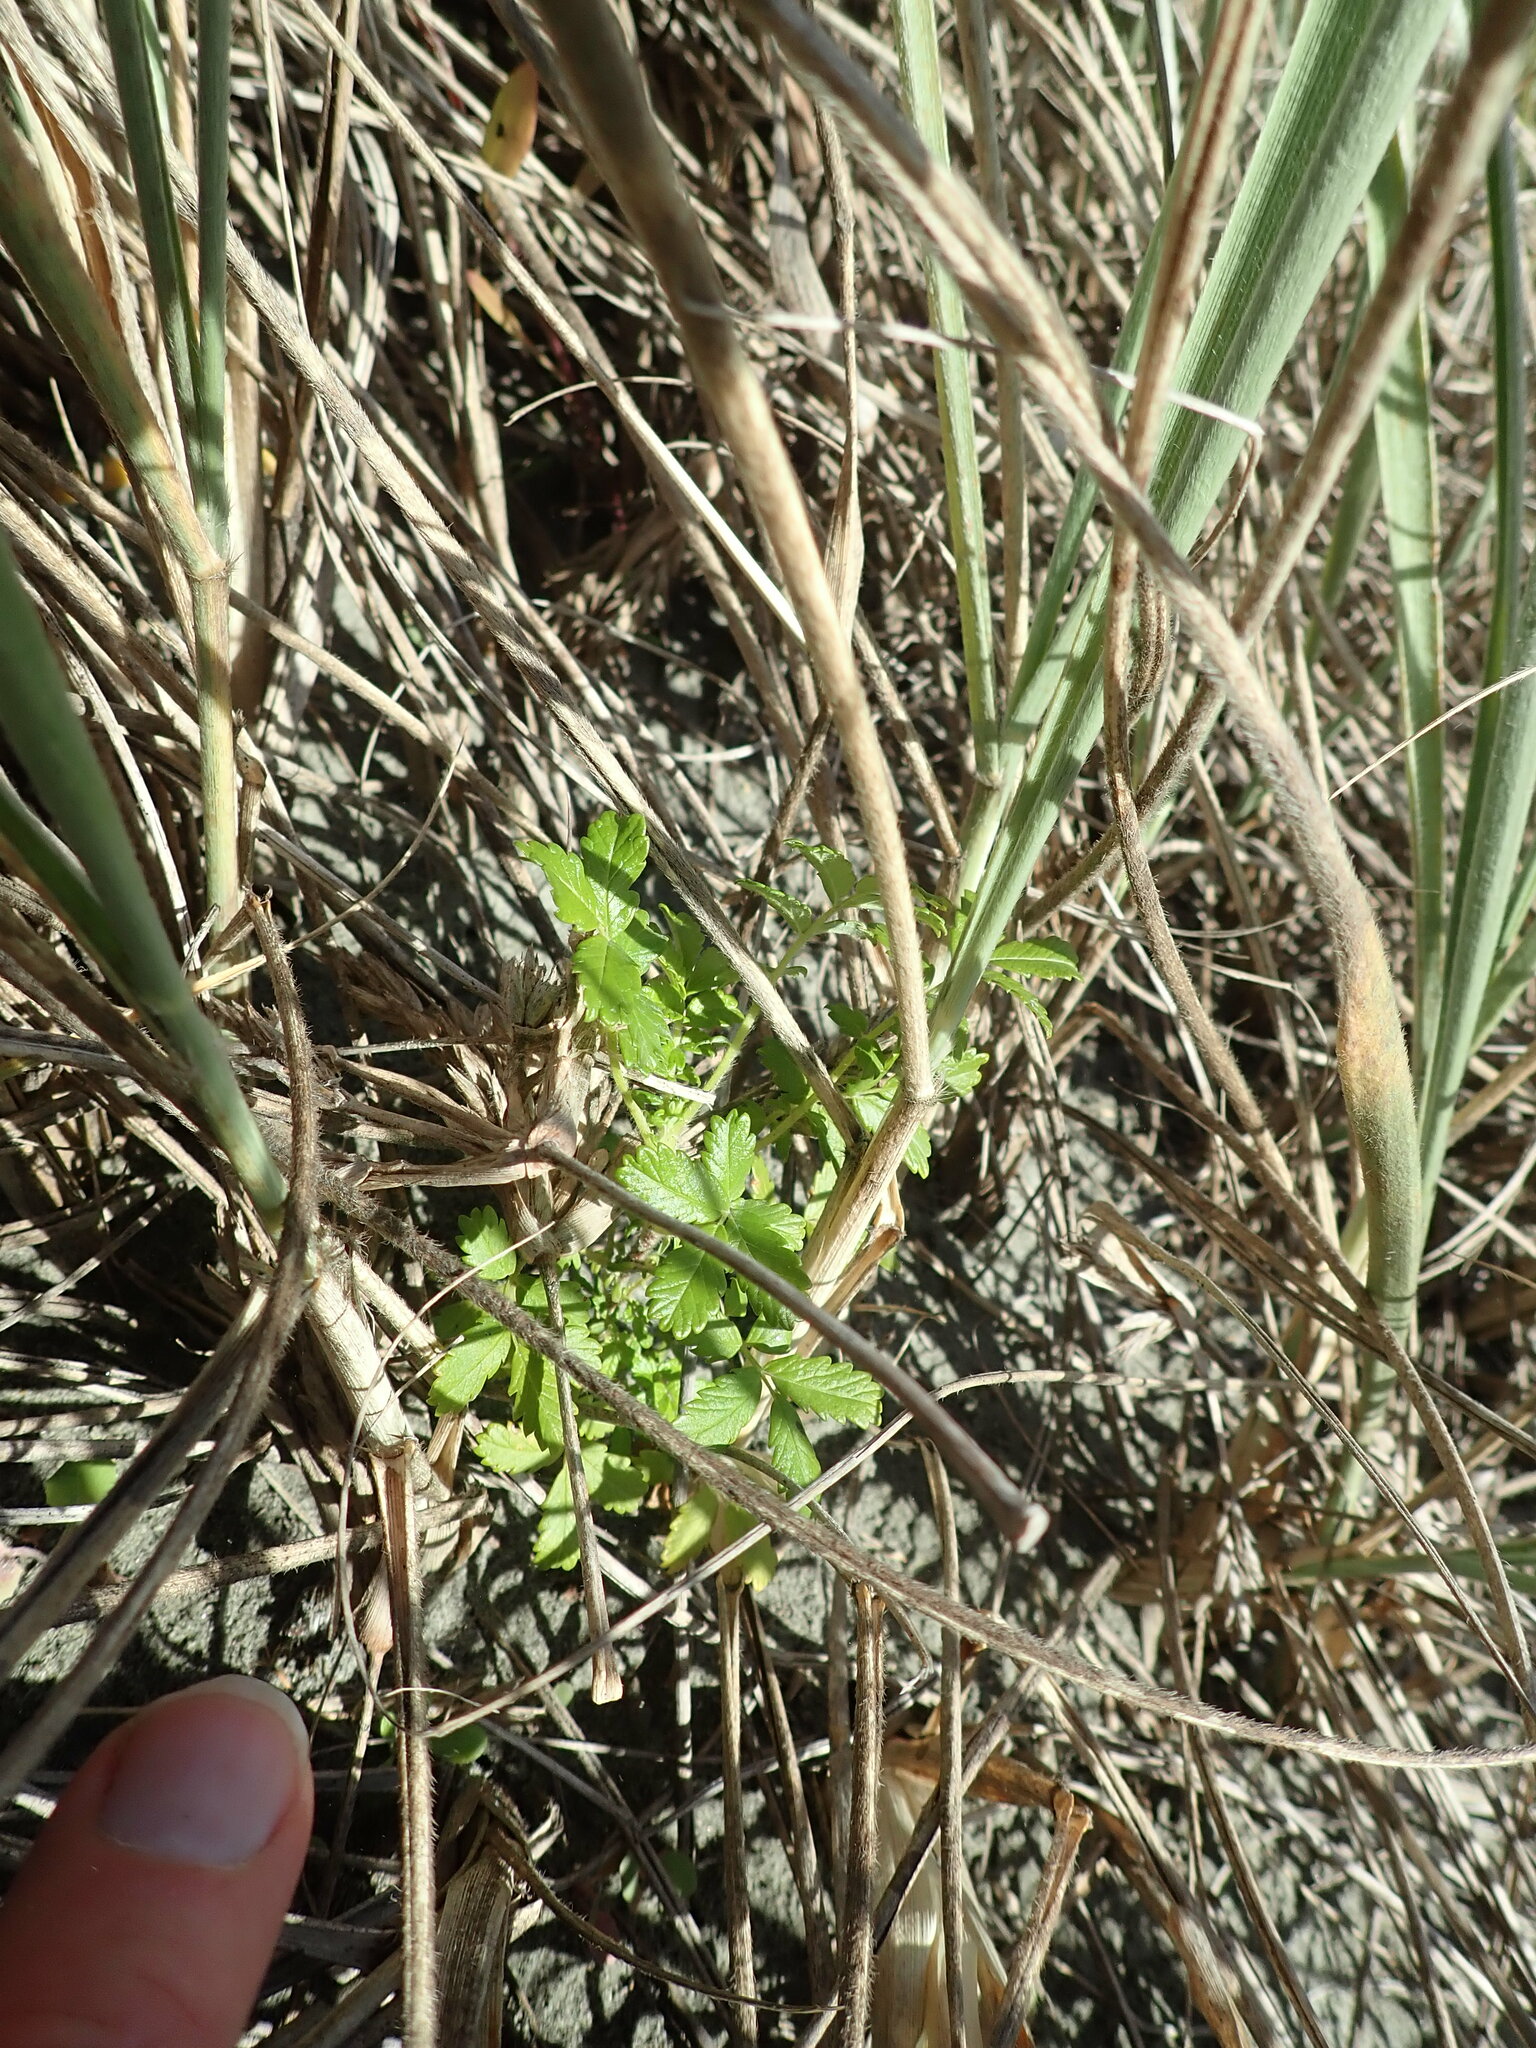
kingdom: Plantae
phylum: Tracheophyta
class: Magnoliopsida
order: Rosales
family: Rosaceae
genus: Acaena
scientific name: Acaena novae-zelandiae
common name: Pirri-pirri-bur
